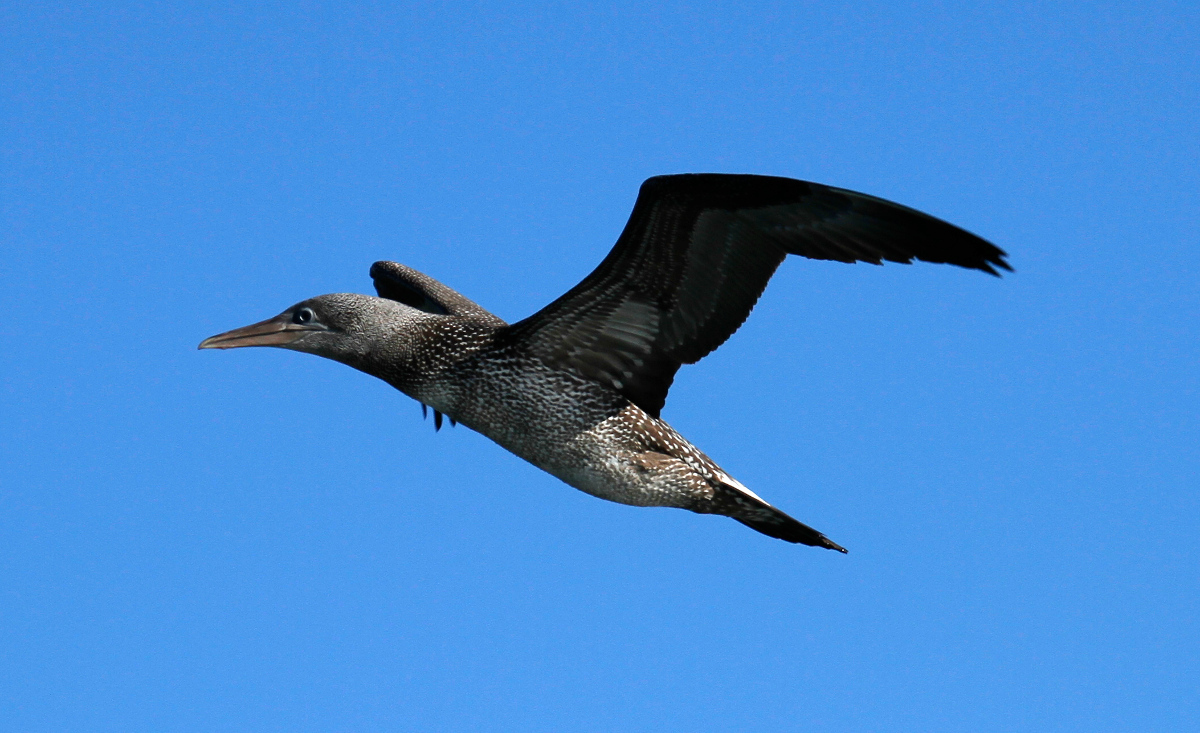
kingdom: Animalia
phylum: Chordata
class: Aves
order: Suliformes
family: Sulidae
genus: Morus
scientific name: Morus bassanus
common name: Northern gannet
